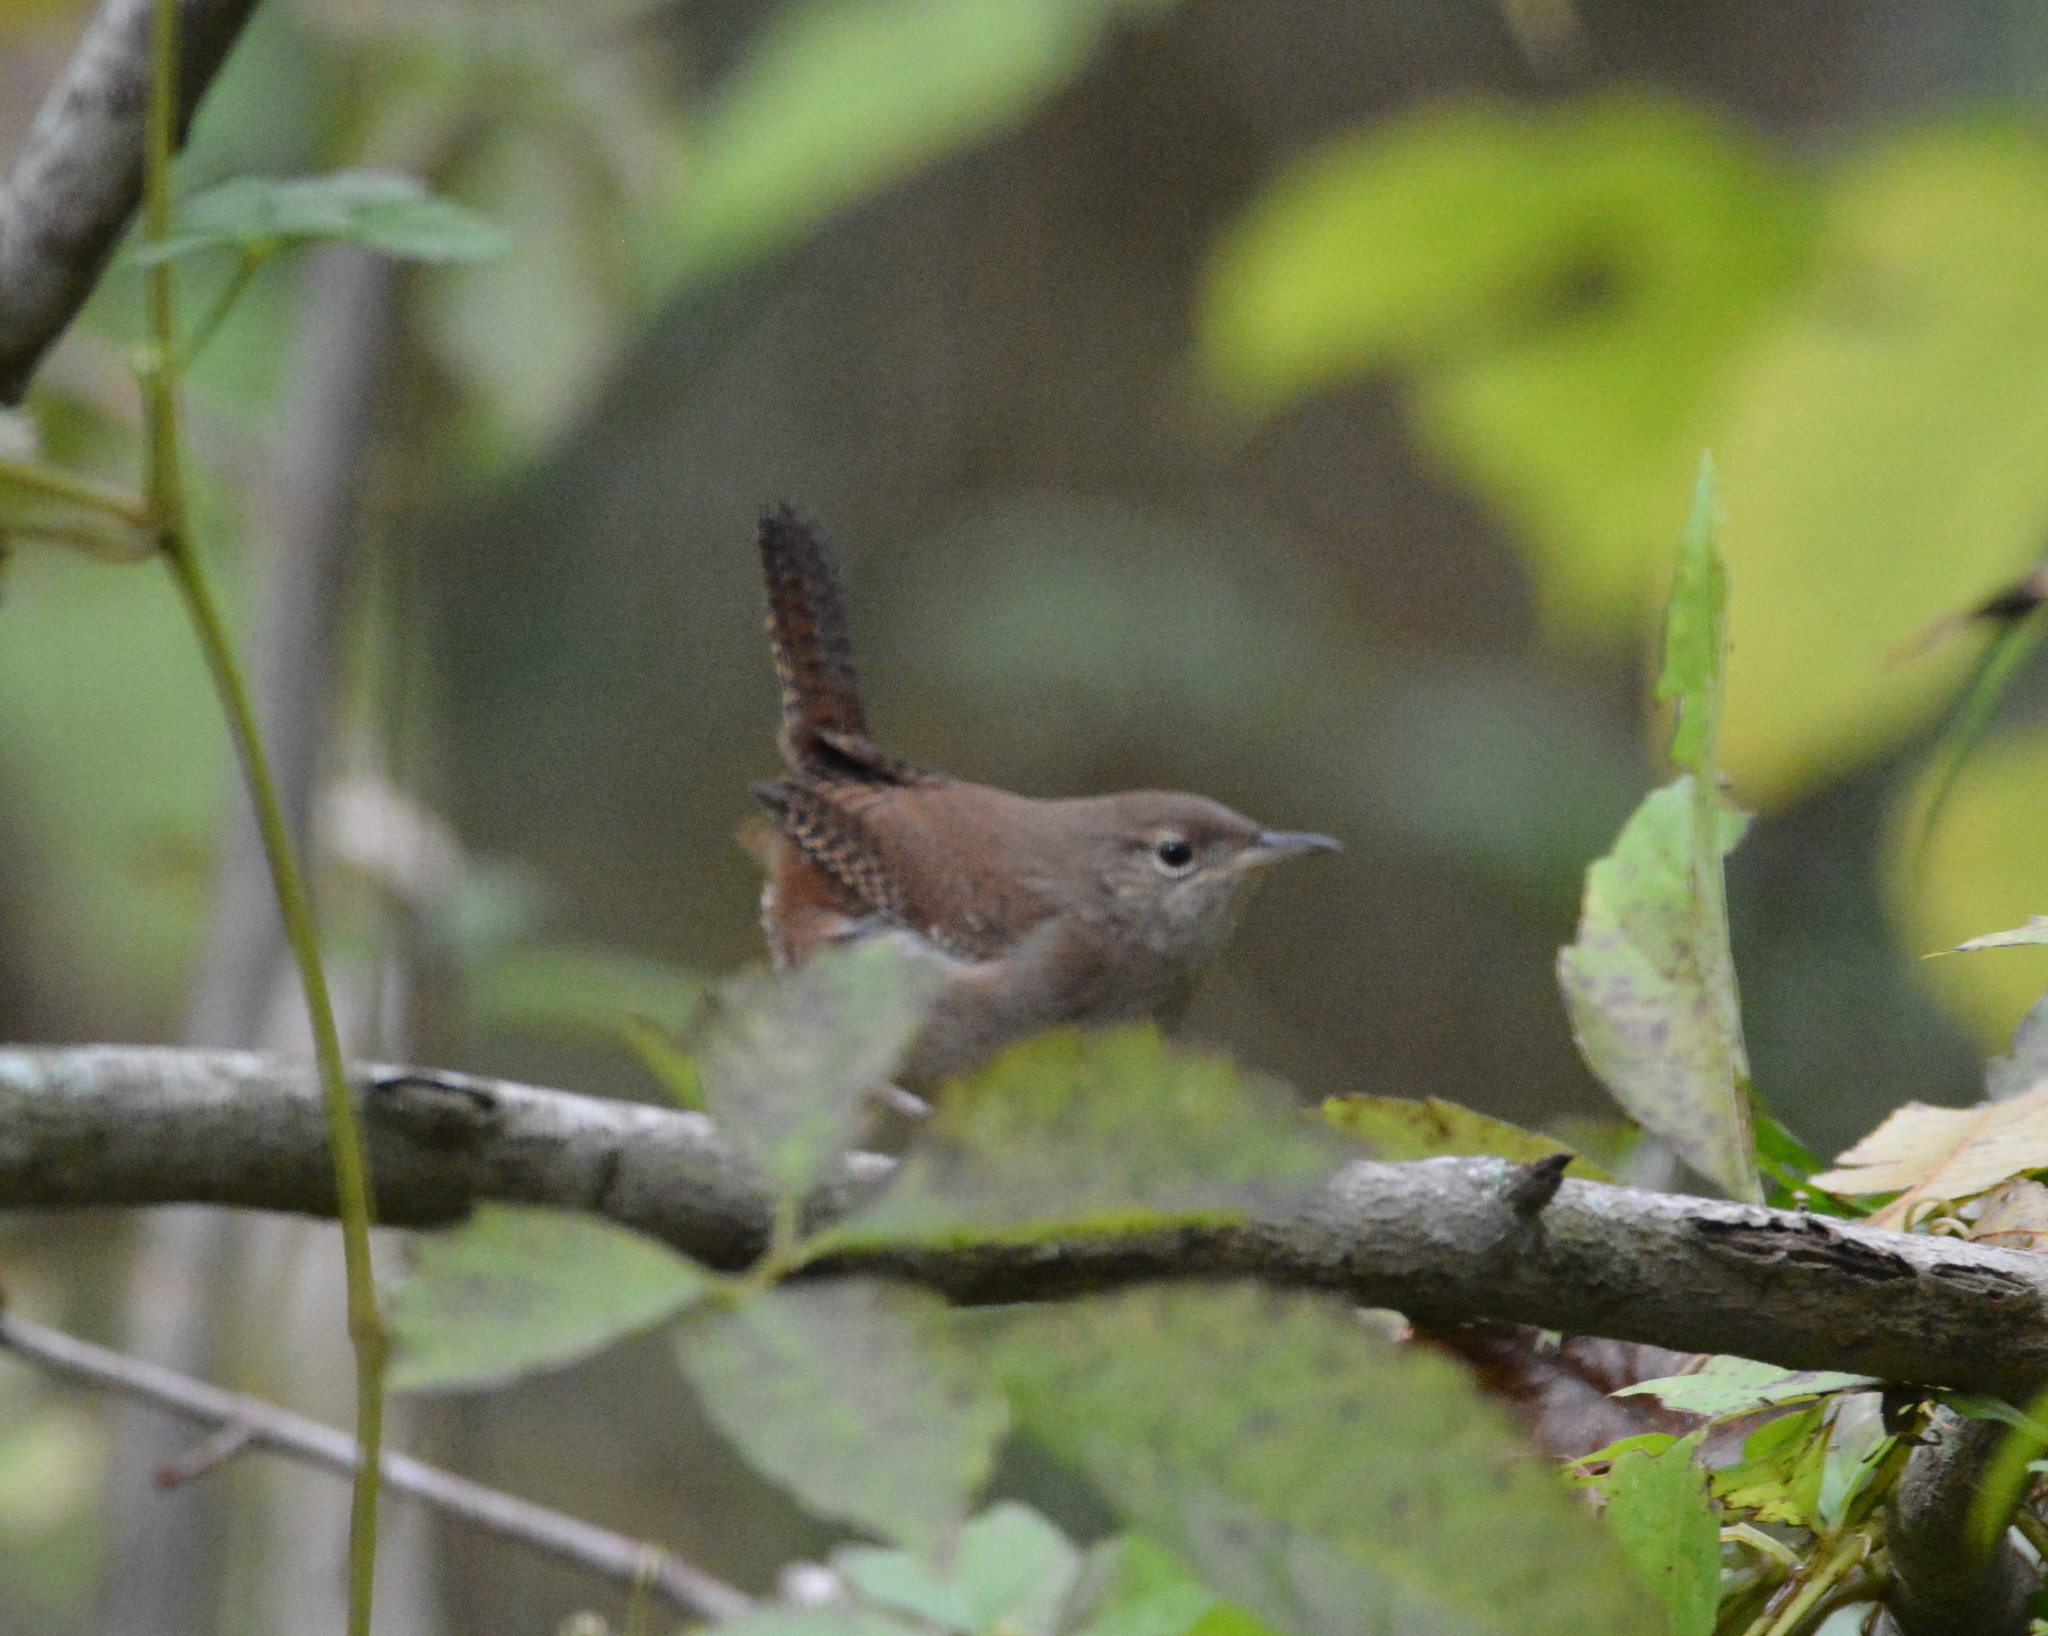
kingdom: Animalia
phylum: Chordata
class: Aves
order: Passeriformes
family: Troglodytidae
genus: Troglodytes
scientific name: Troglodytes aedon
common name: House wren
